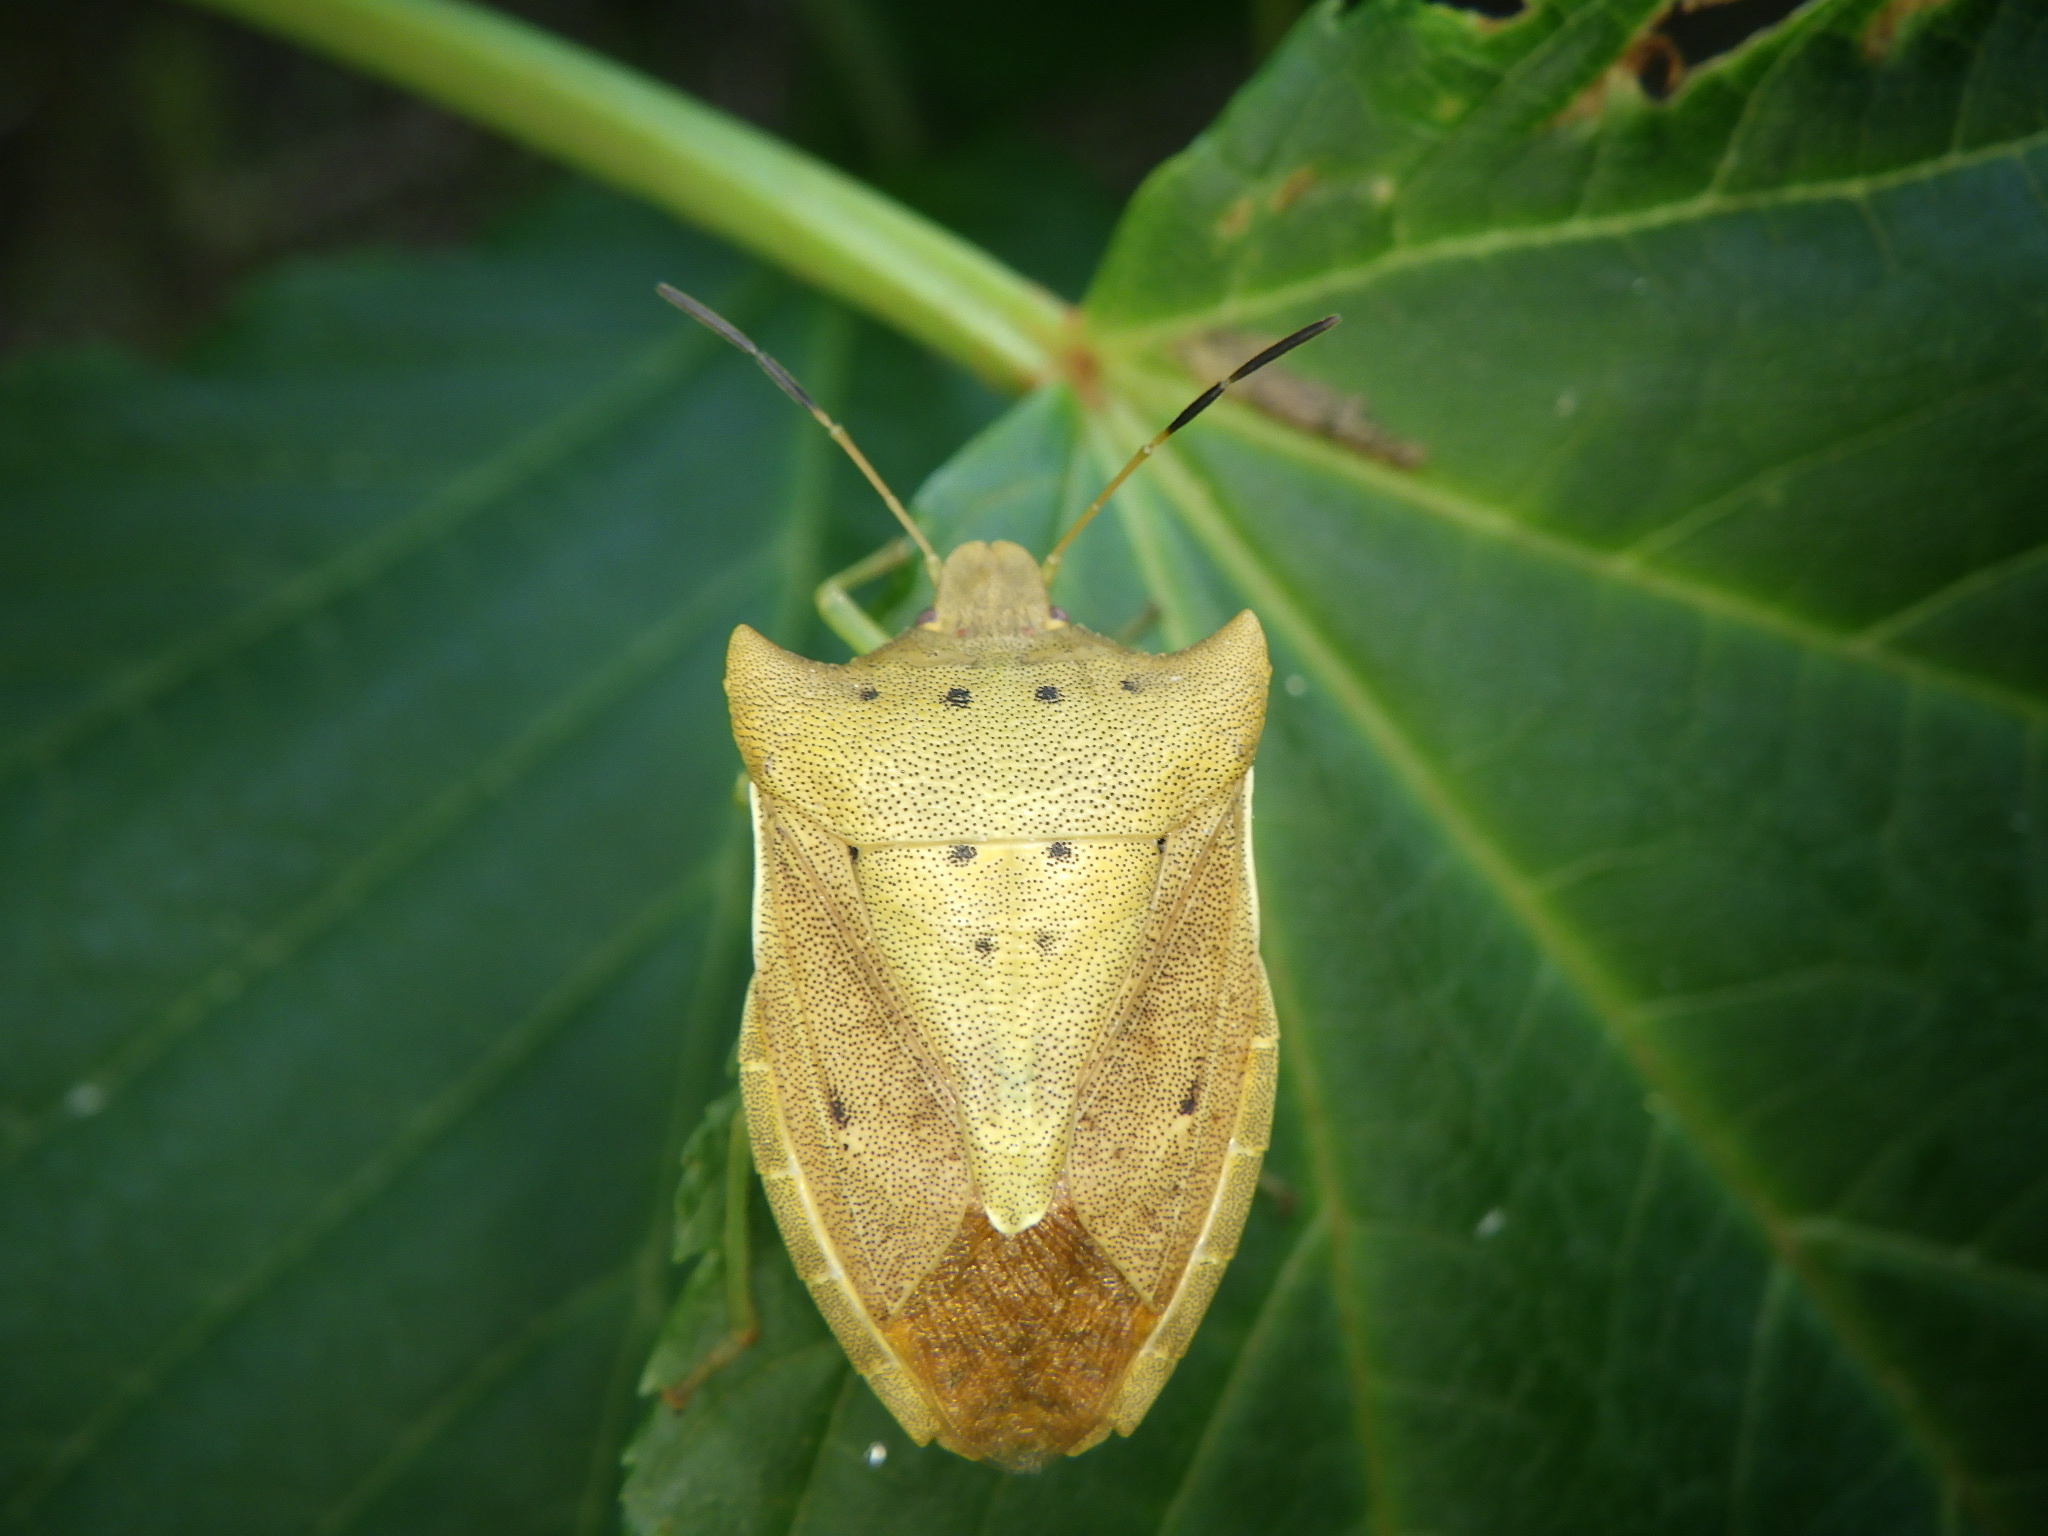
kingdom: Animalia
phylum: Arthropoda
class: Insecta
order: Hemiptera
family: Pentatomidae
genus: Lelia
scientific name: Lelia decempunctata
